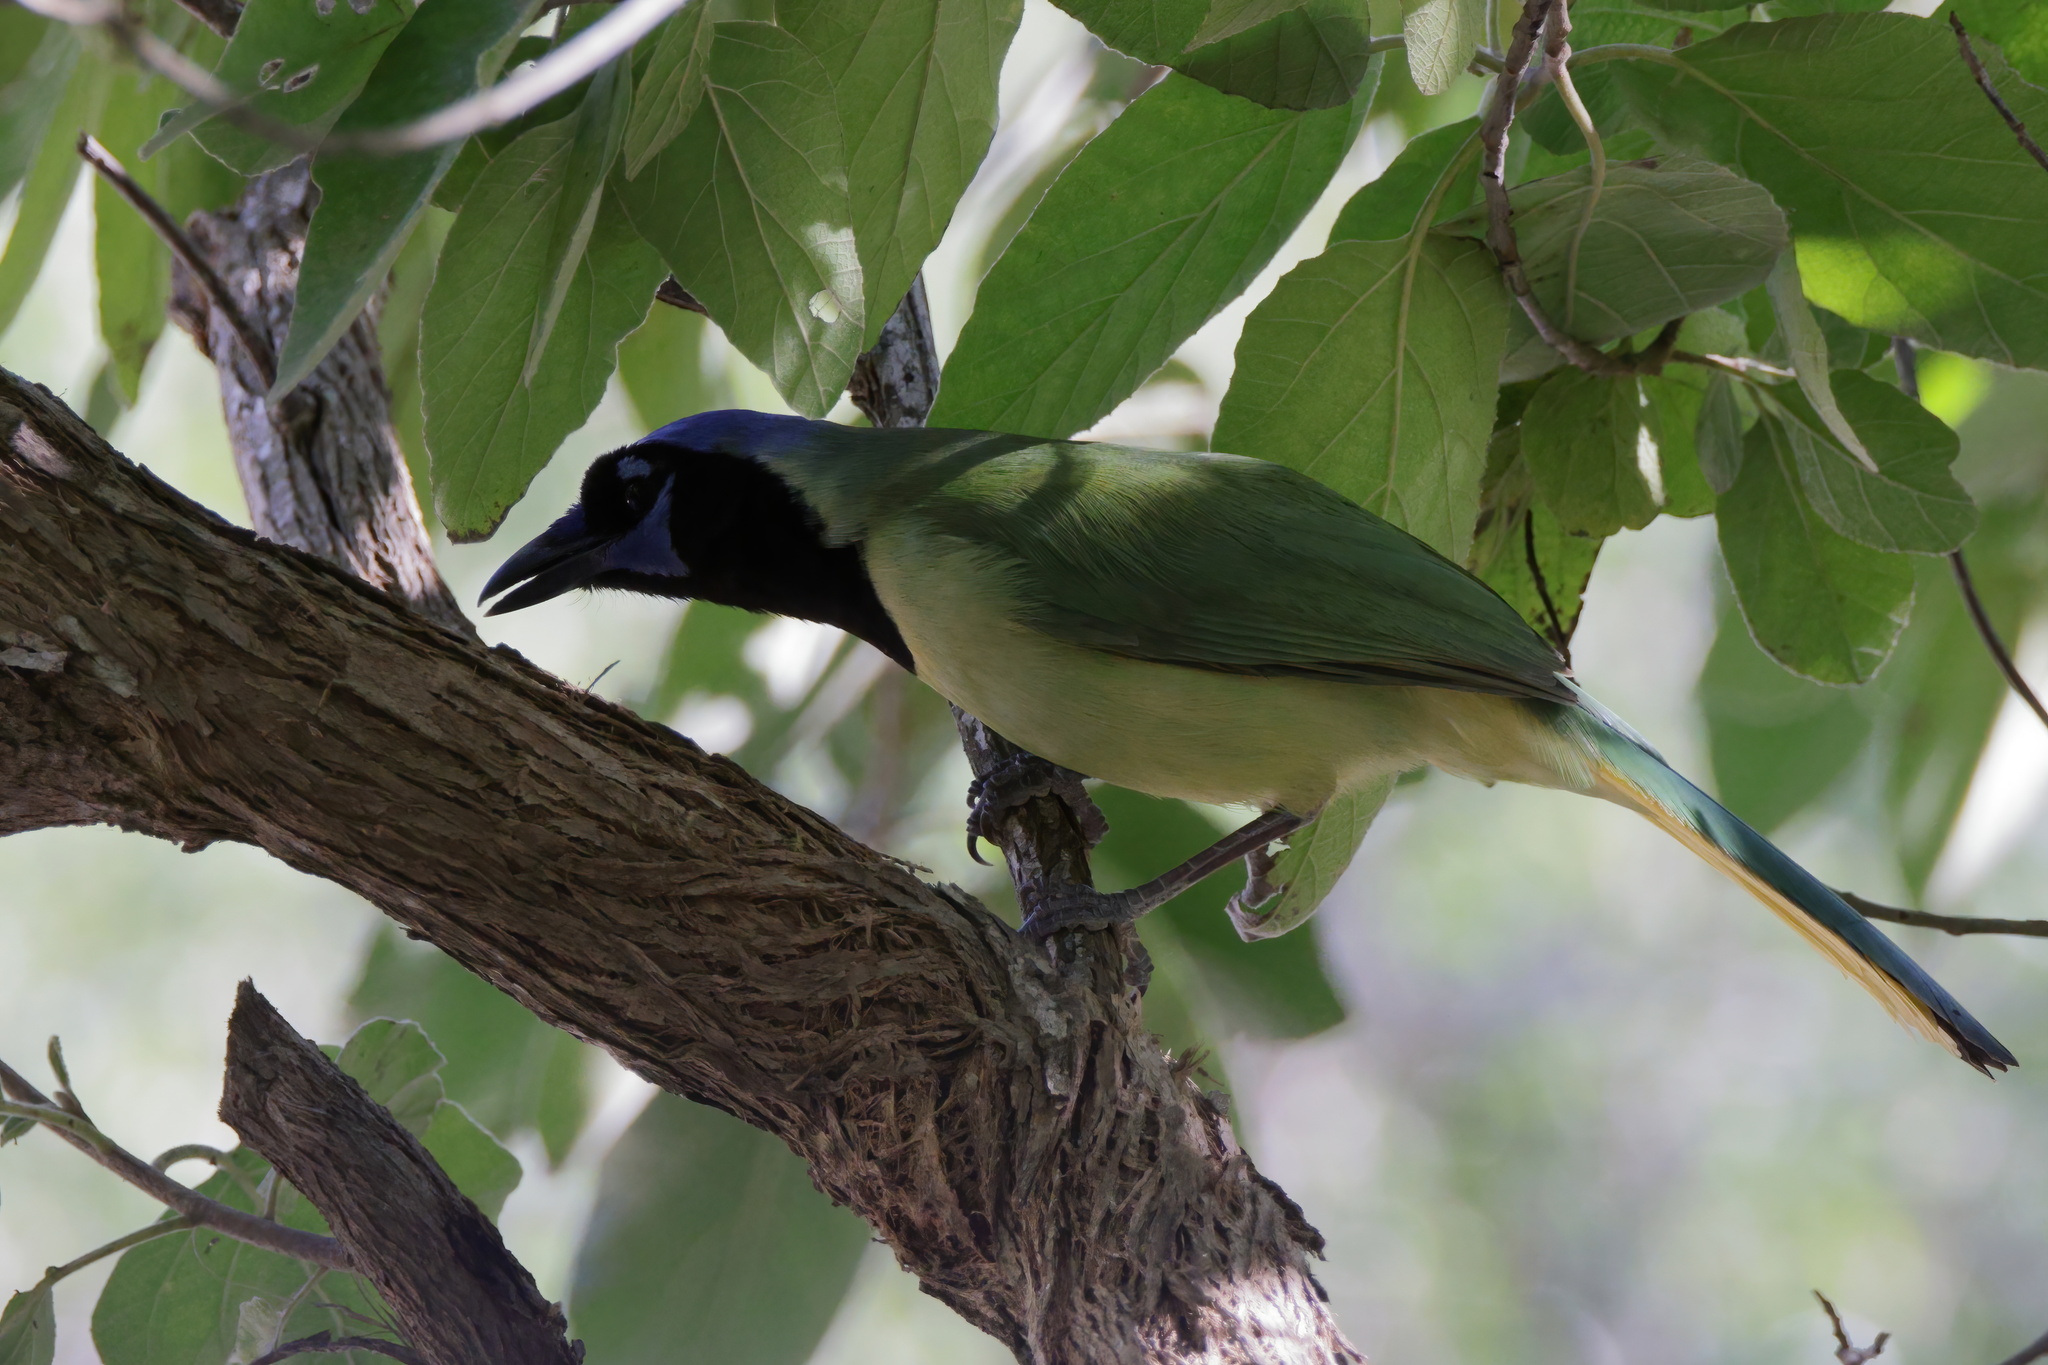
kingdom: Animalia
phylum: Chordata
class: Aves
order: Passeriformes
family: Corvidae
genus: Cyanocorax
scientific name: Cyanocorax yncas
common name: Green jay
